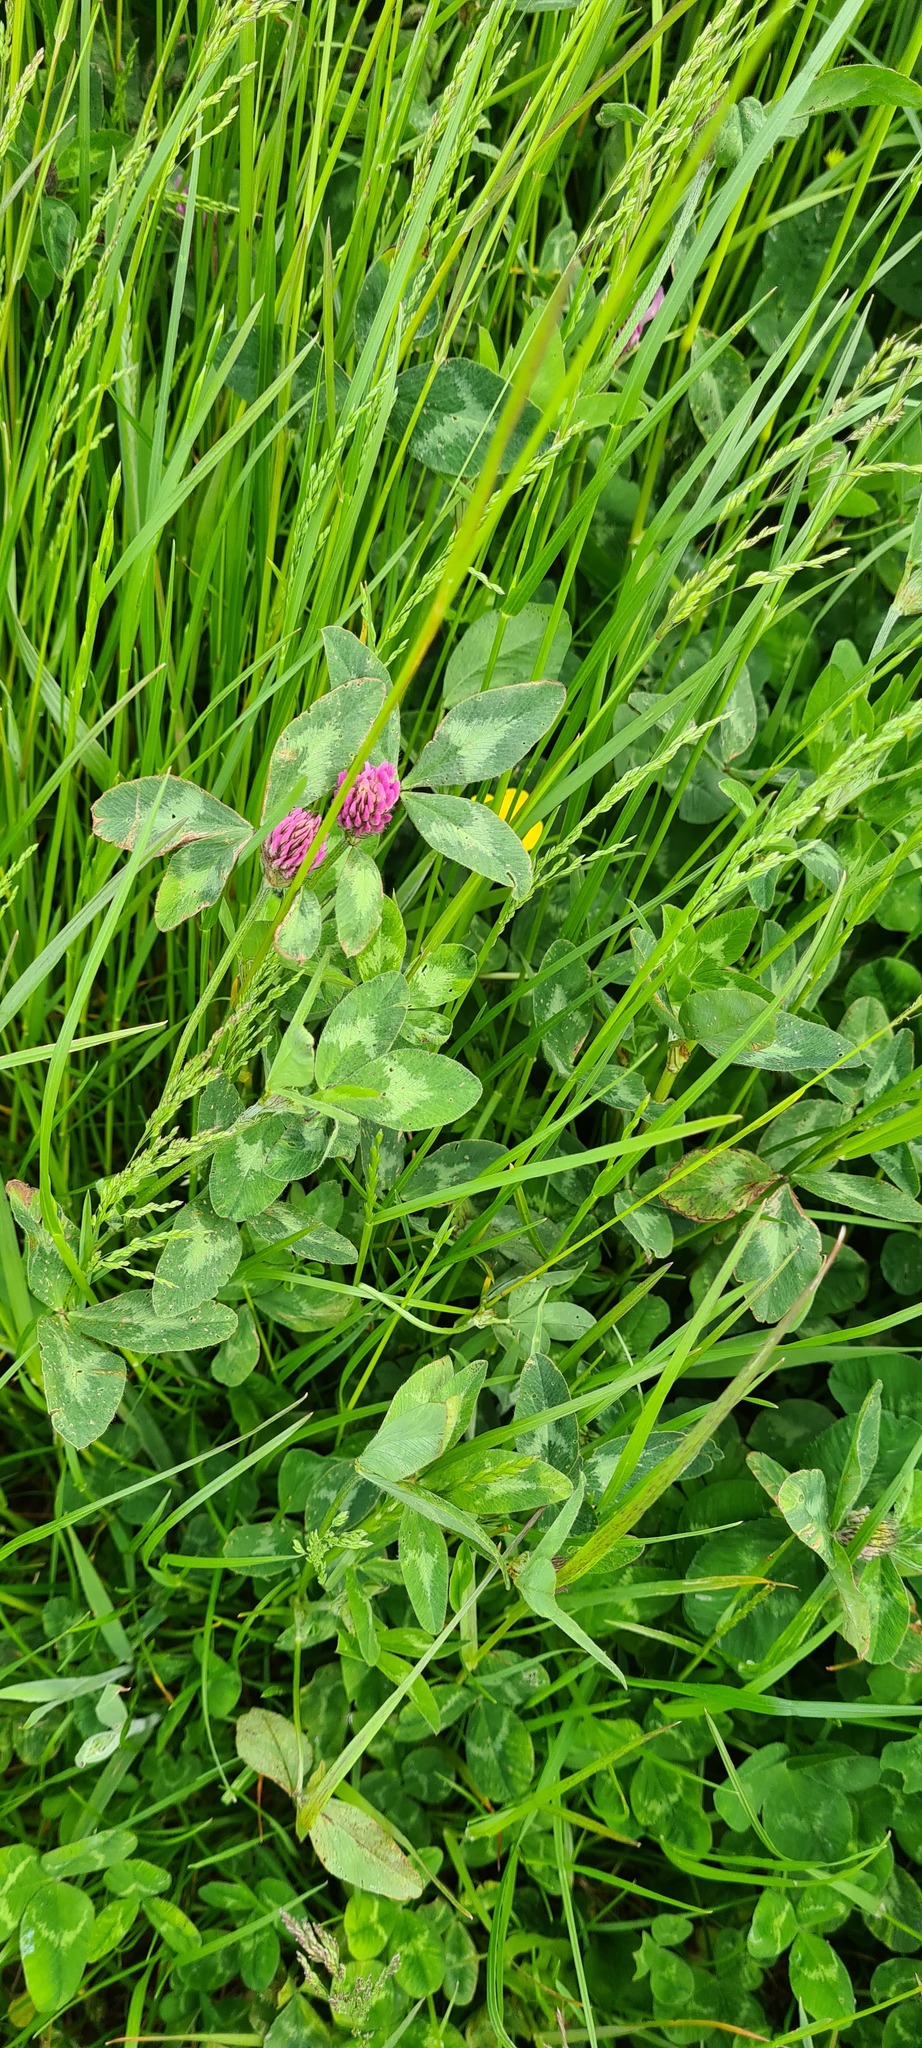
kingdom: Plantae
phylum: Tracheophyta
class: Magnoliopsida
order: Fabales
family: Fabaceae
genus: Trifolium
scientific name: Trifolium pratense
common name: Red clover
